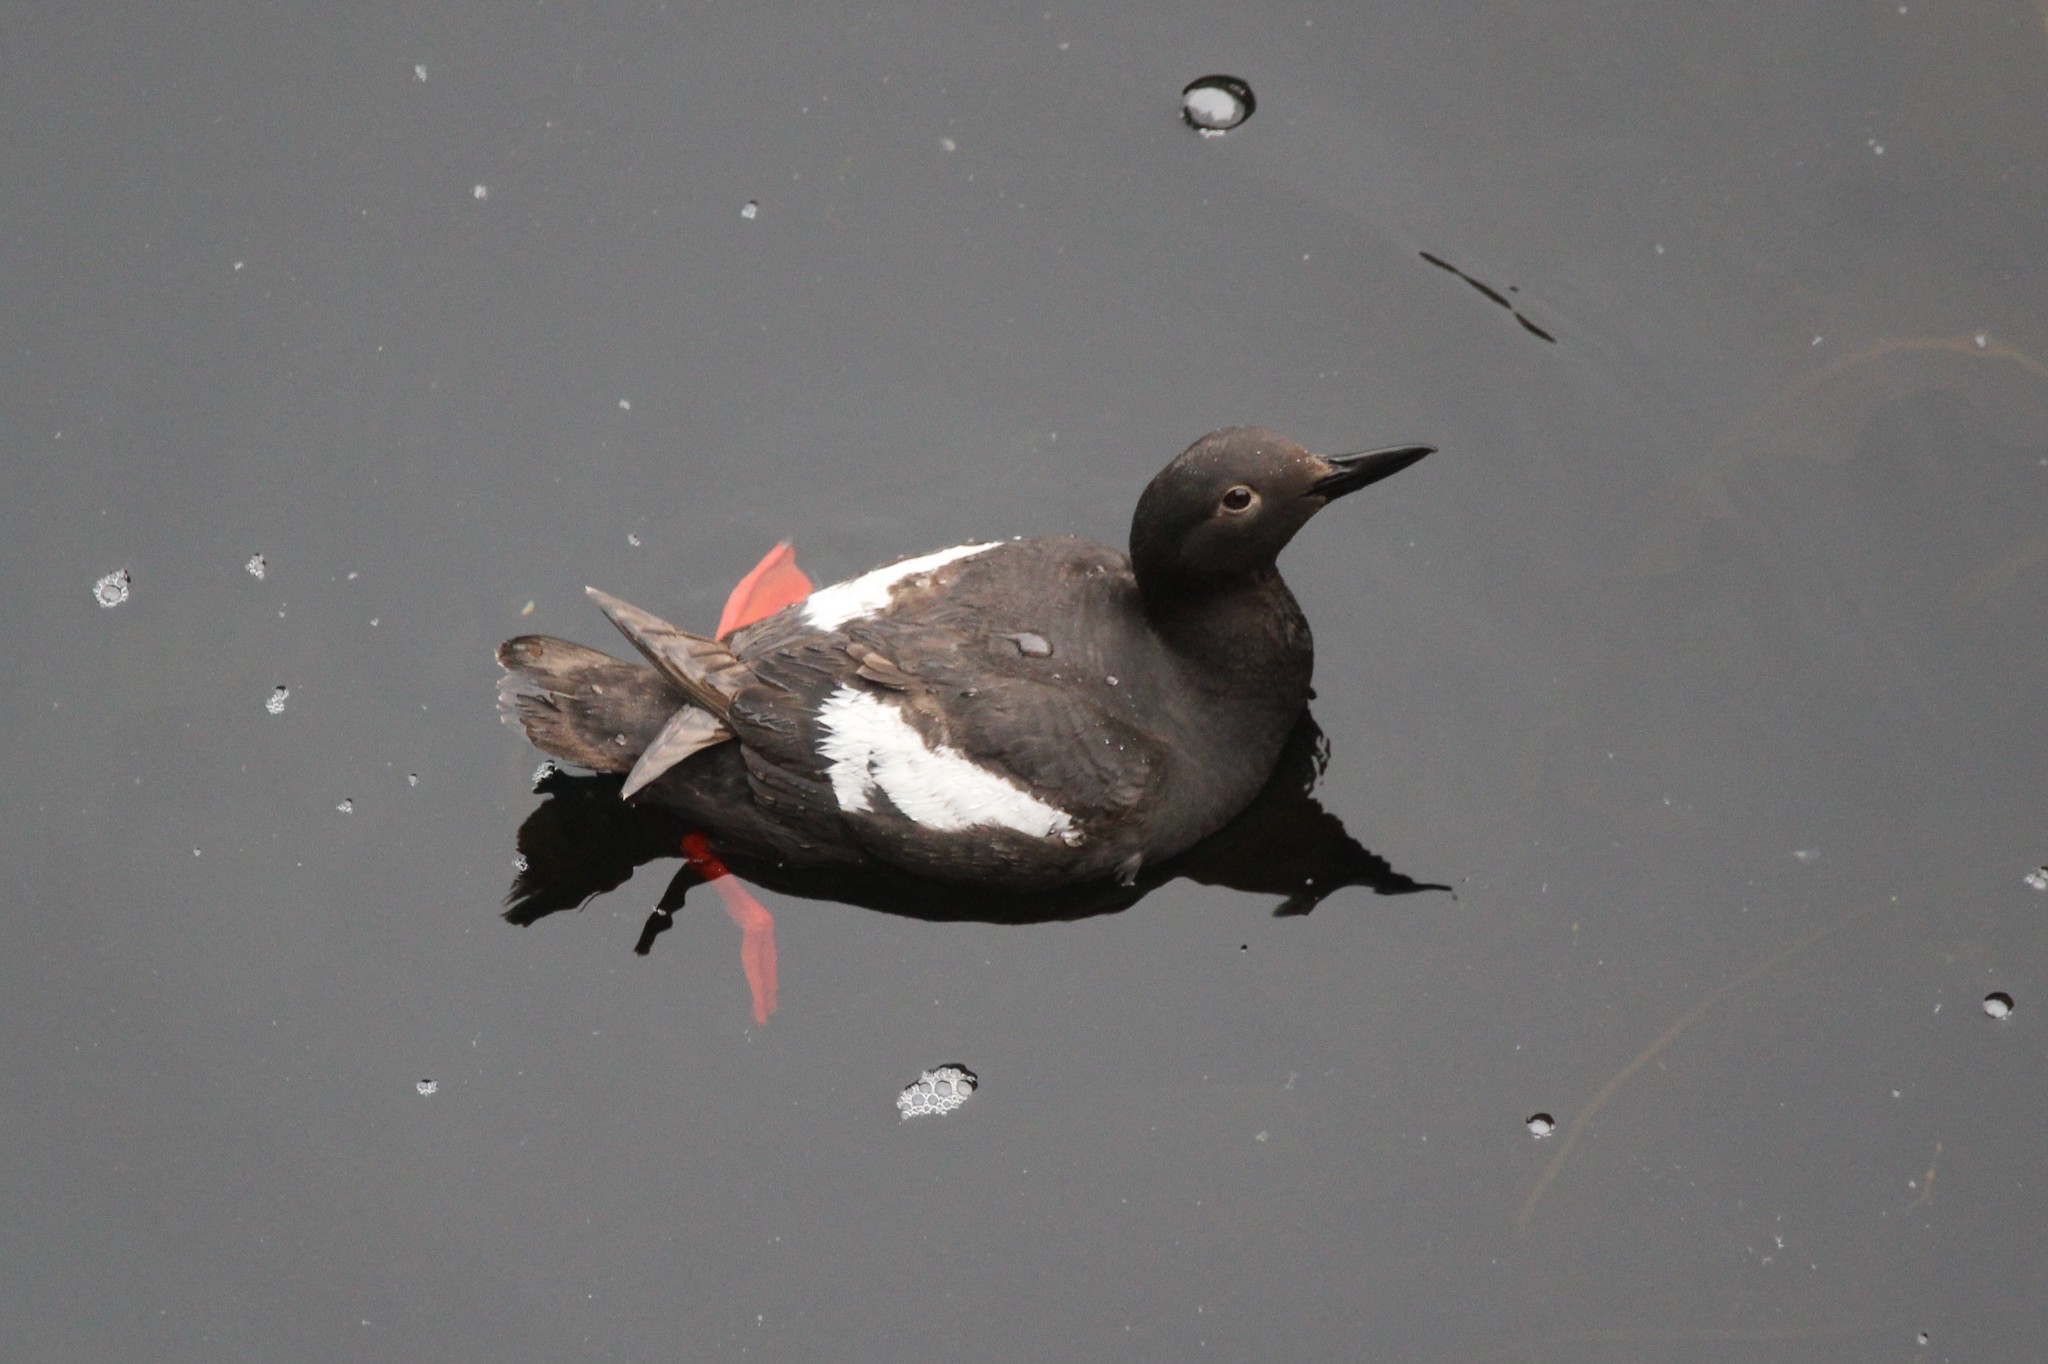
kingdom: Animalia
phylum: Chordata
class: Aves
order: Charadriiformes
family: Alcidae
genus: Cepphus
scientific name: Cepphus columba
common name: Pigeon guillemot
